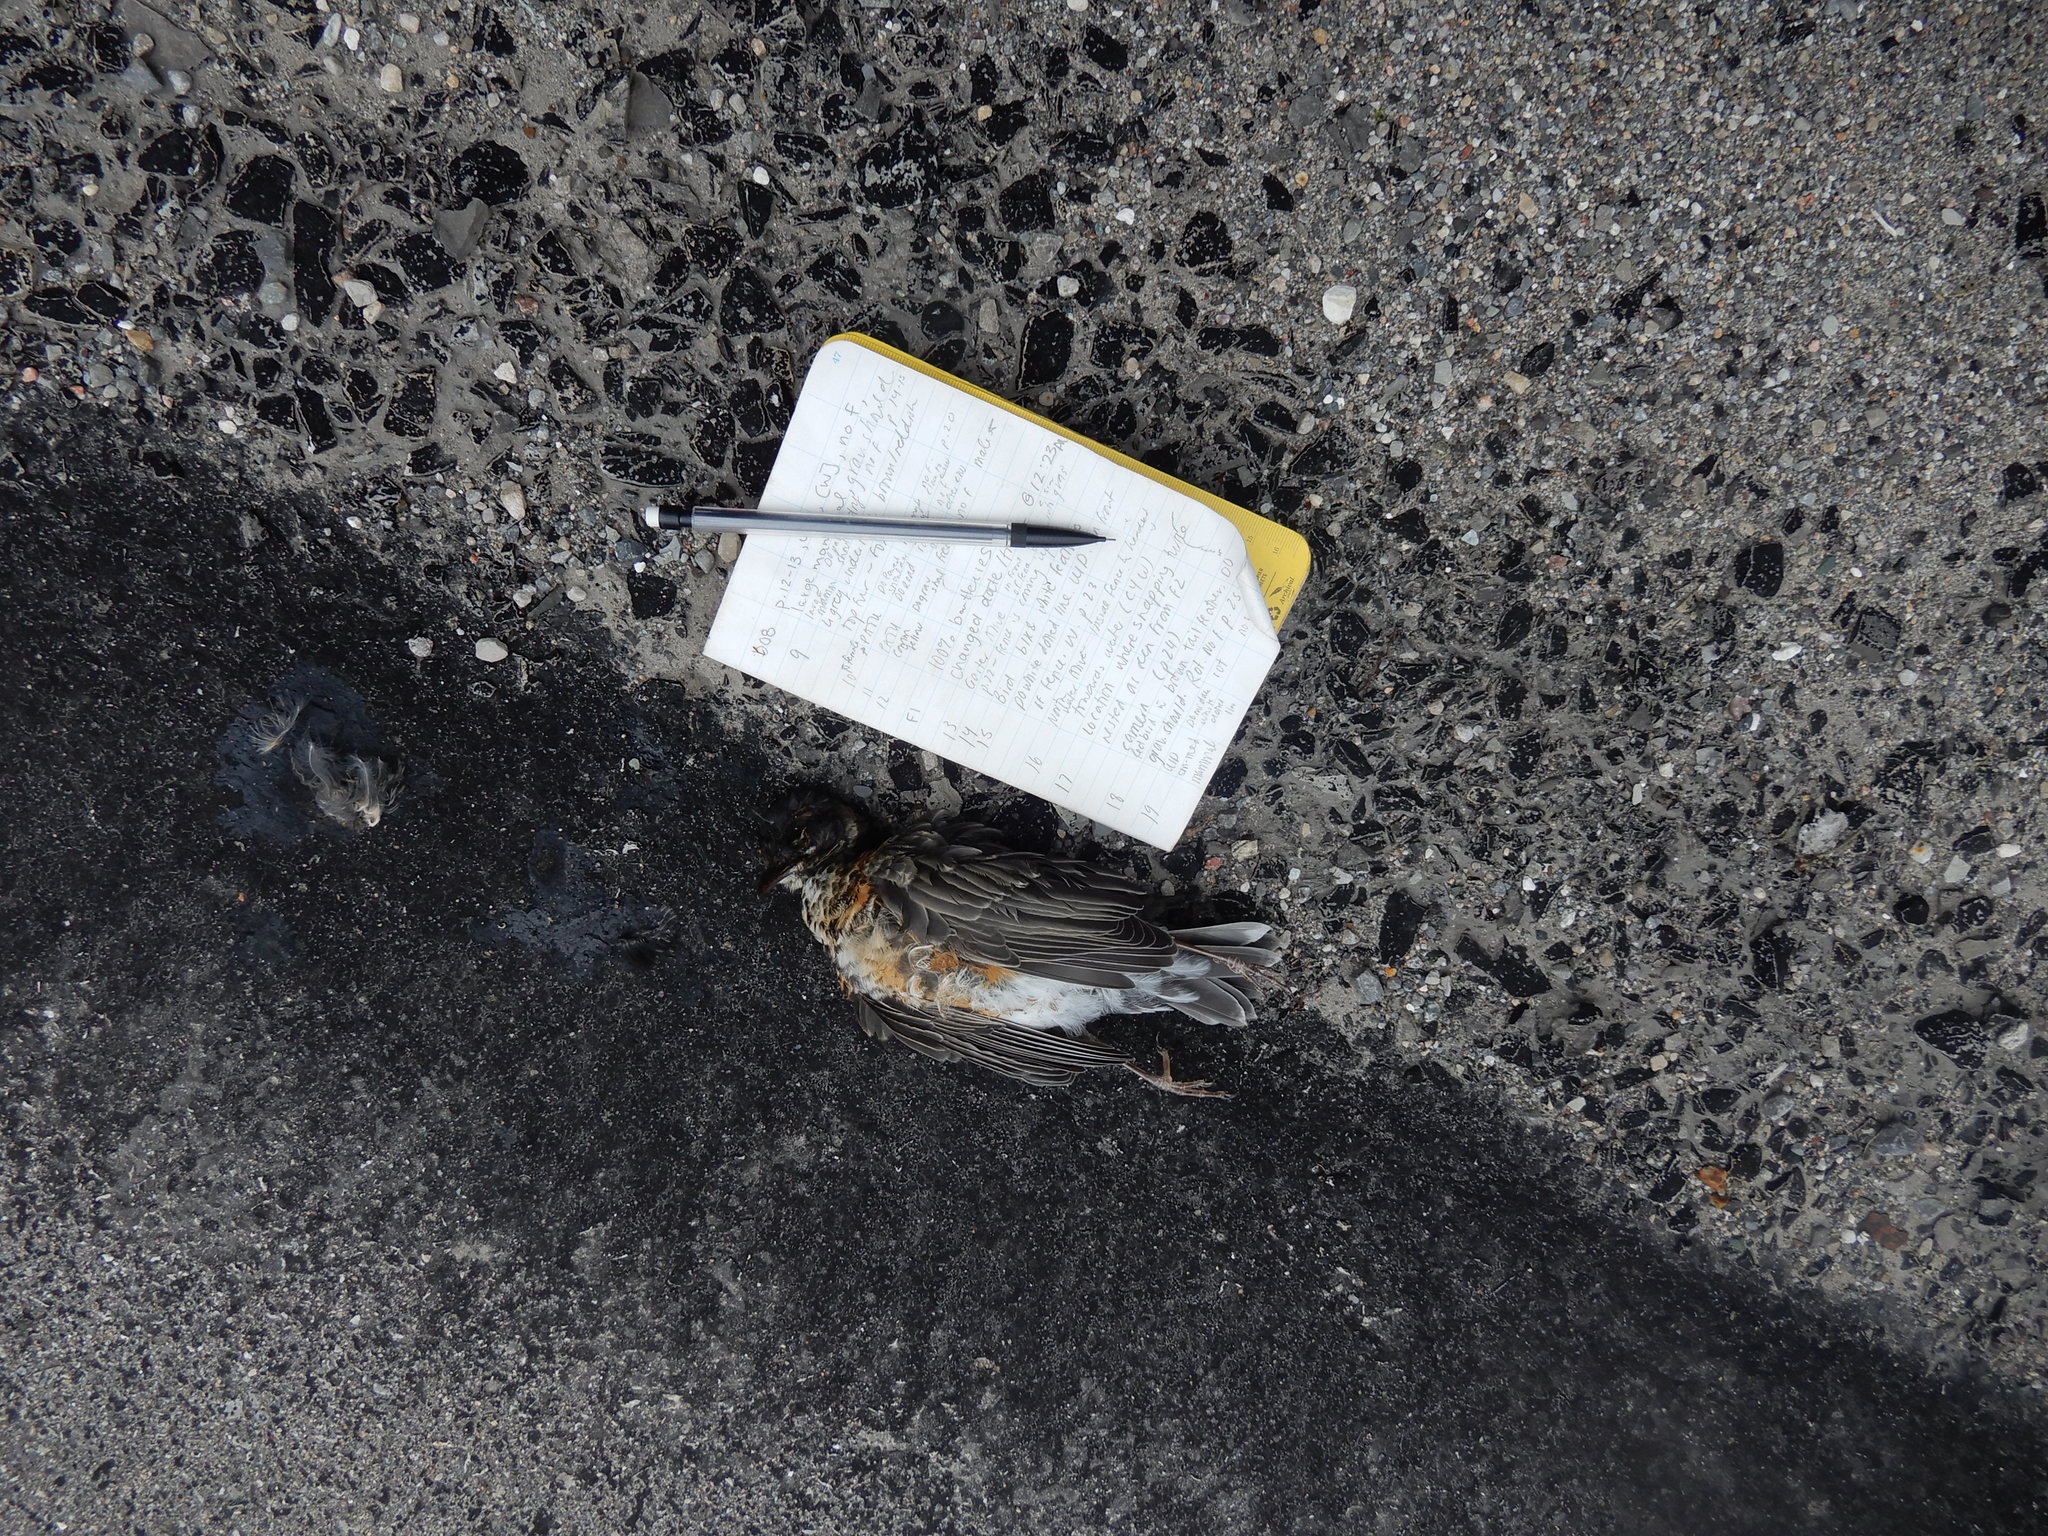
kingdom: Animalia
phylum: Chordata
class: Aves
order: Passeriformes
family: Turdidae
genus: Turdus
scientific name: Turdus migratorius
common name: American robin
